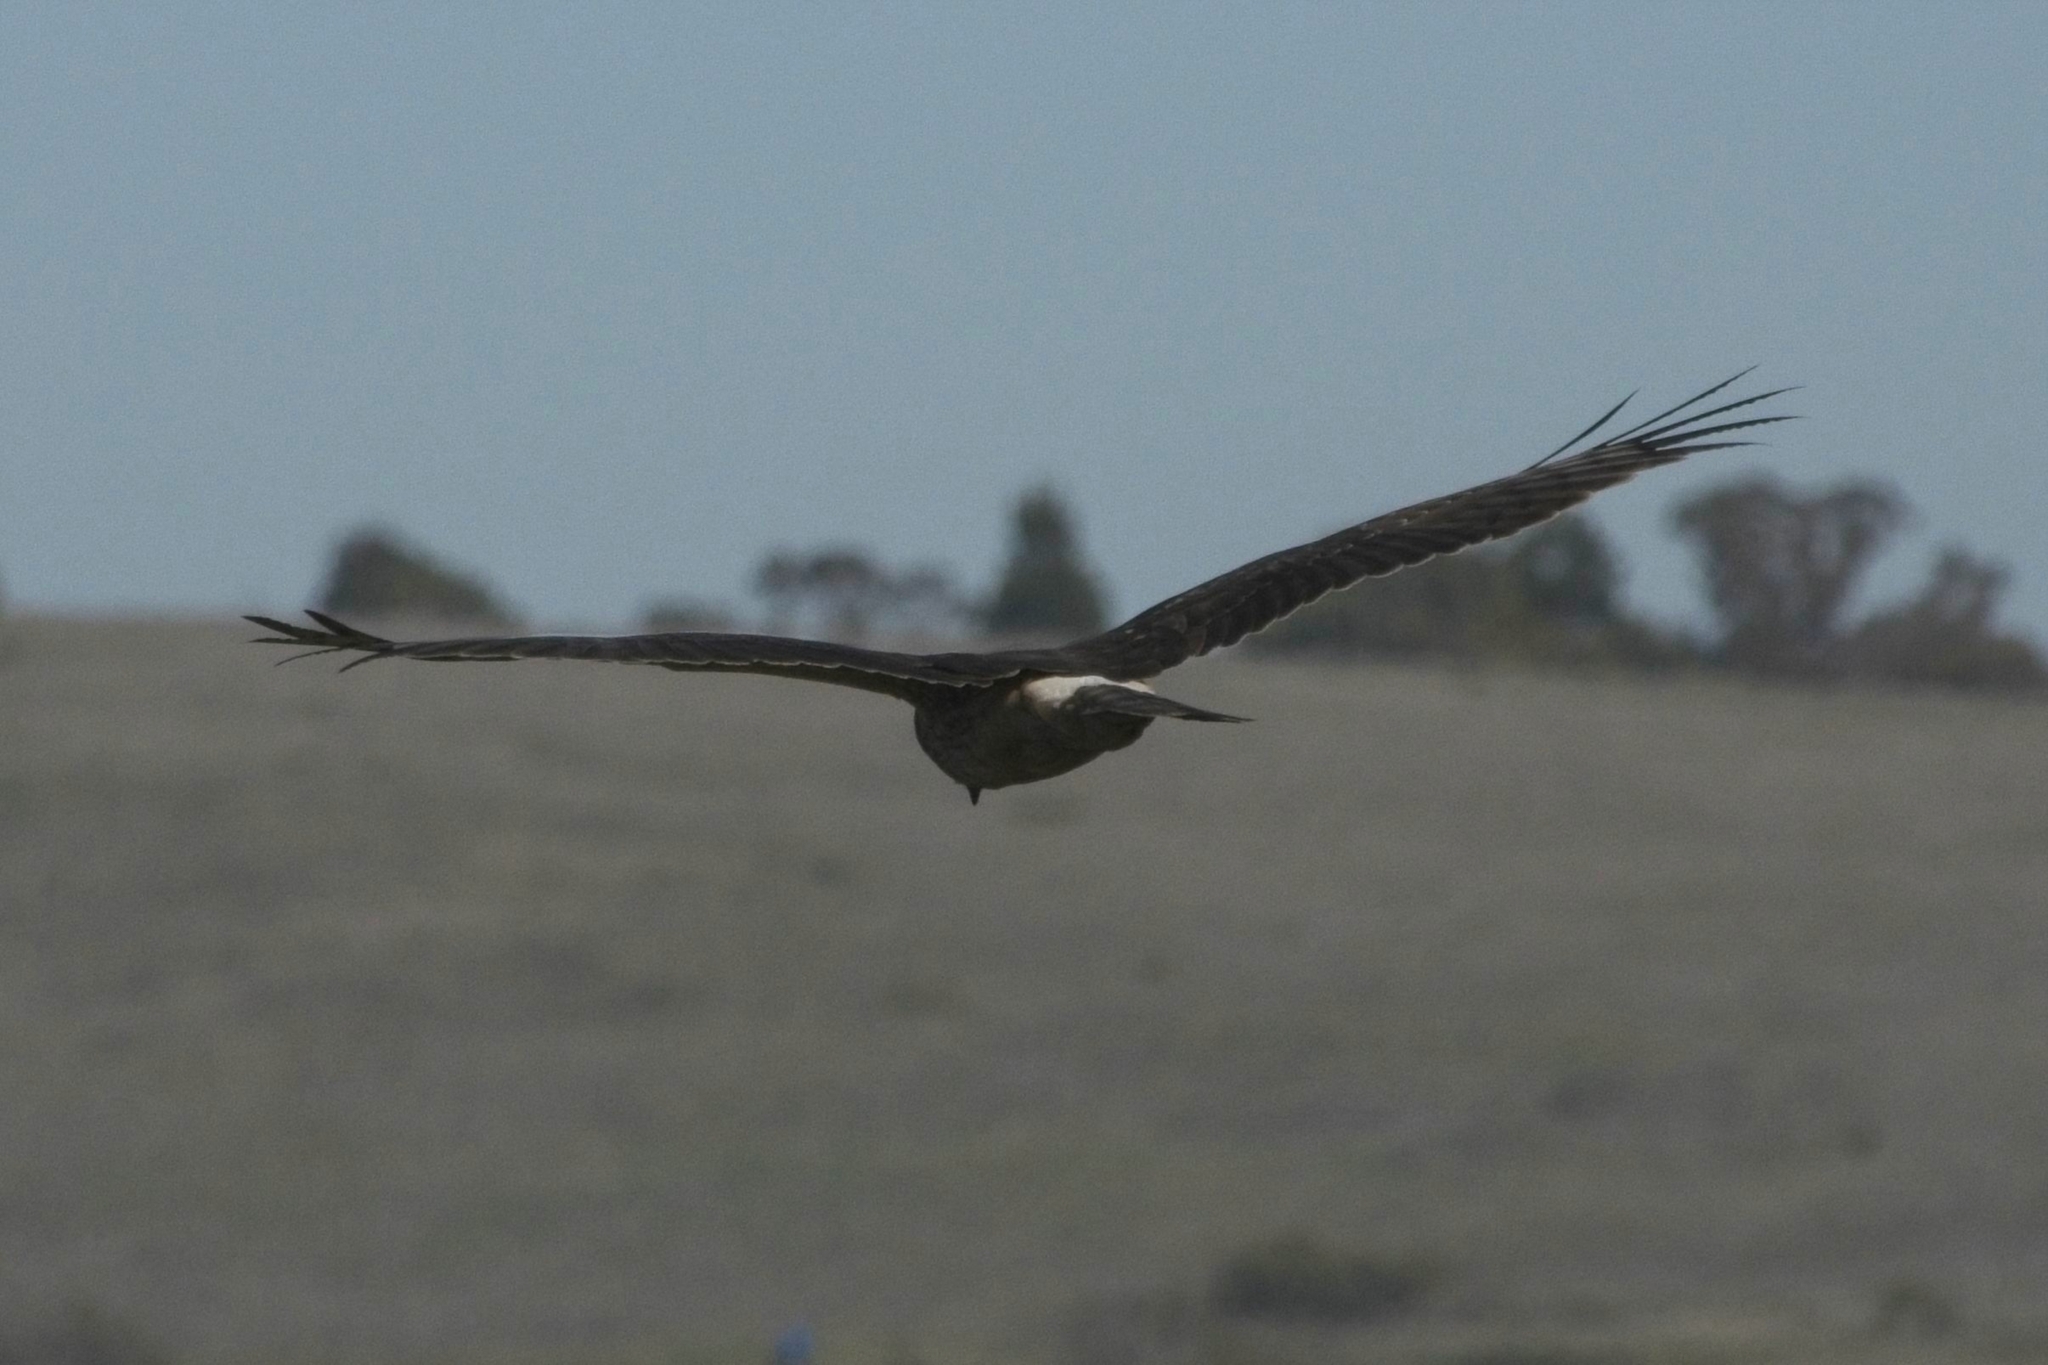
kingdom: Animalia
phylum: Chordata
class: Aves
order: Accipitriformes
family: Accipitridae
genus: Circus
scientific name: Circus cyaneus
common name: Hen harrier
